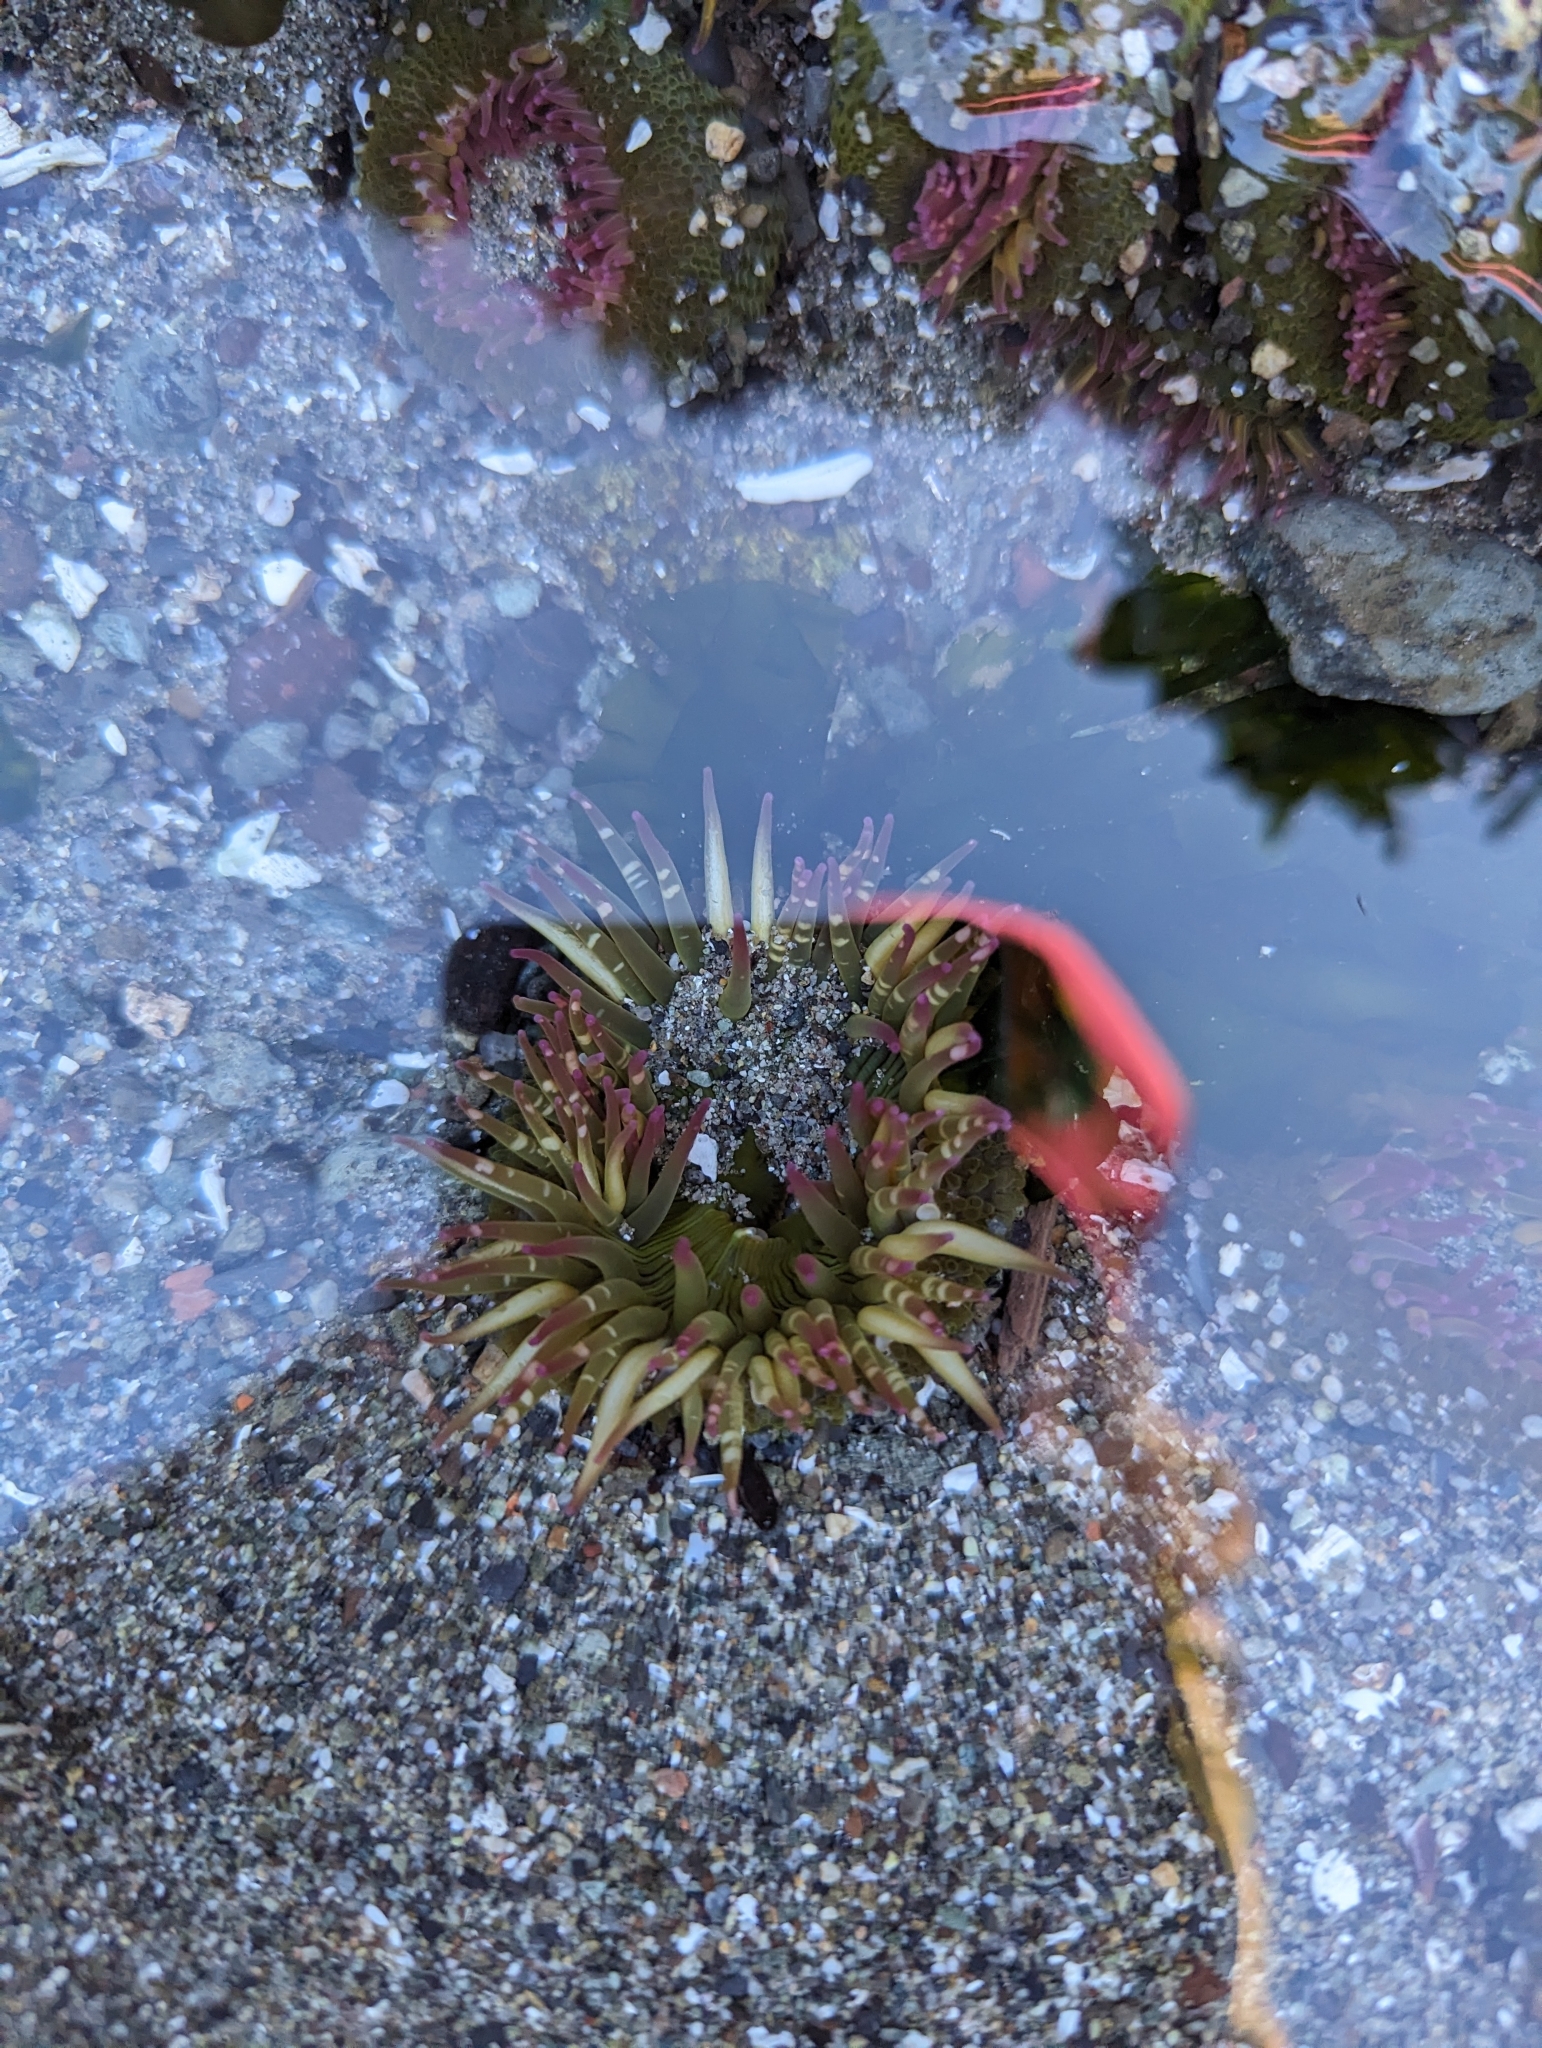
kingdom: Animalia
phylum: Cnidaria
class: Anthozoa
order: Actiniaria
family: Actiniidae
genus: Anthopleura
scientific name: Anthopleura elegantissima
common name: Clonal anemone
